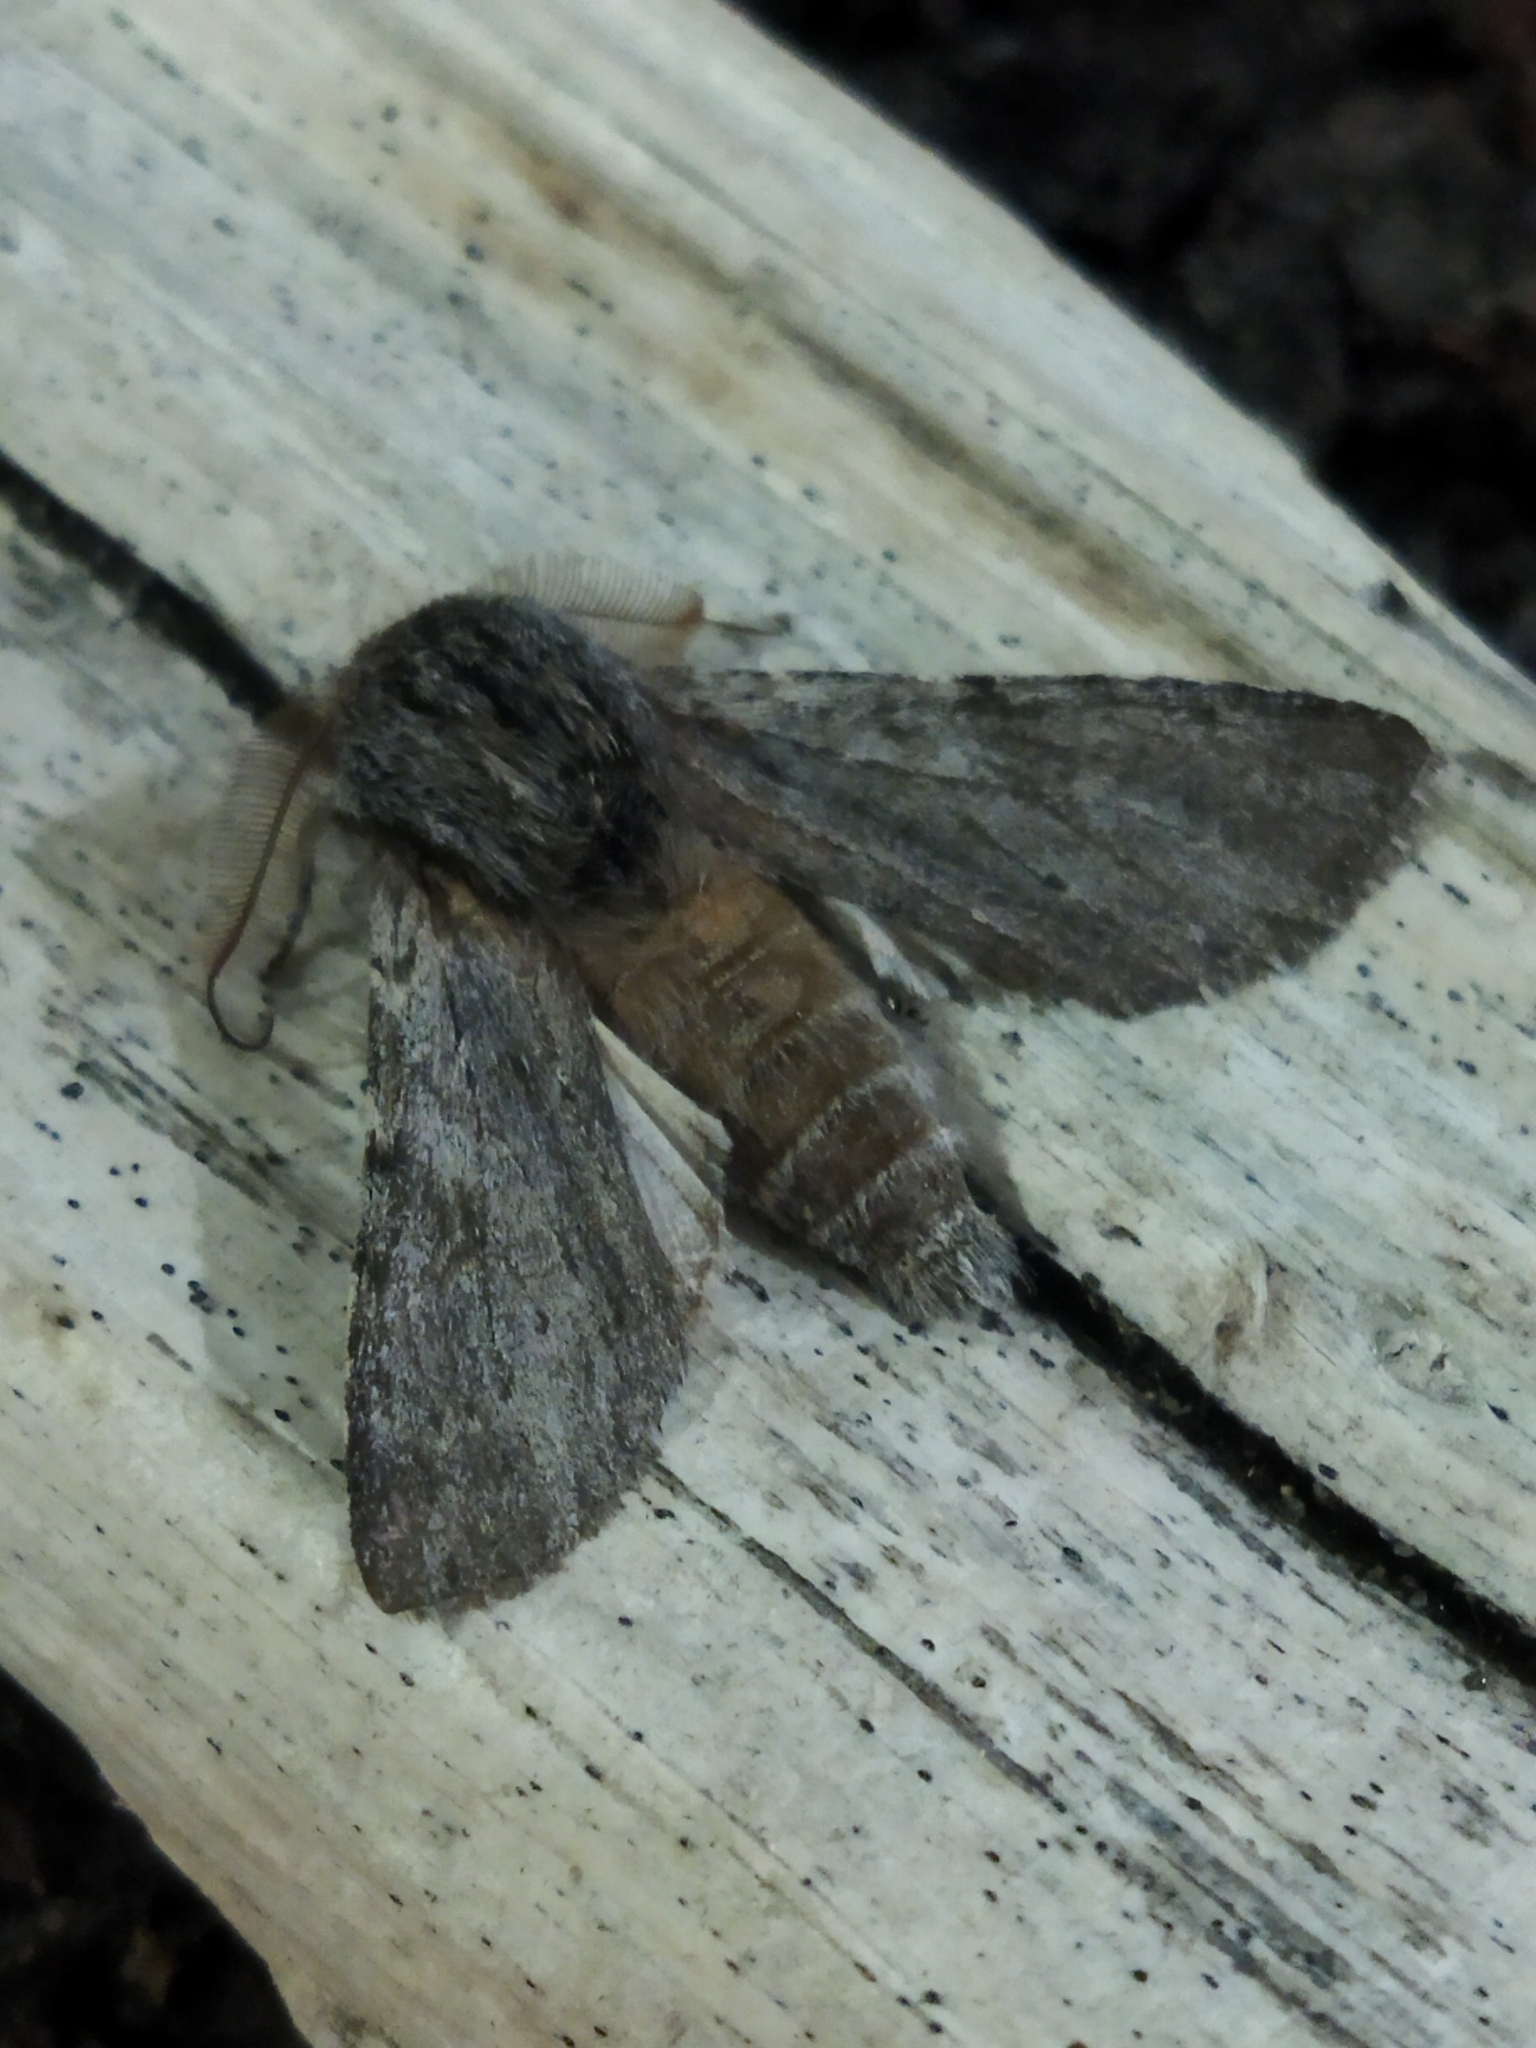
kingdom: Animalia
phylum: Arthropoda
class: Insecta
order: Lepidoptera
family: Notodontidae
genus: Dicranura
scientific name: Dicranura ulmi
